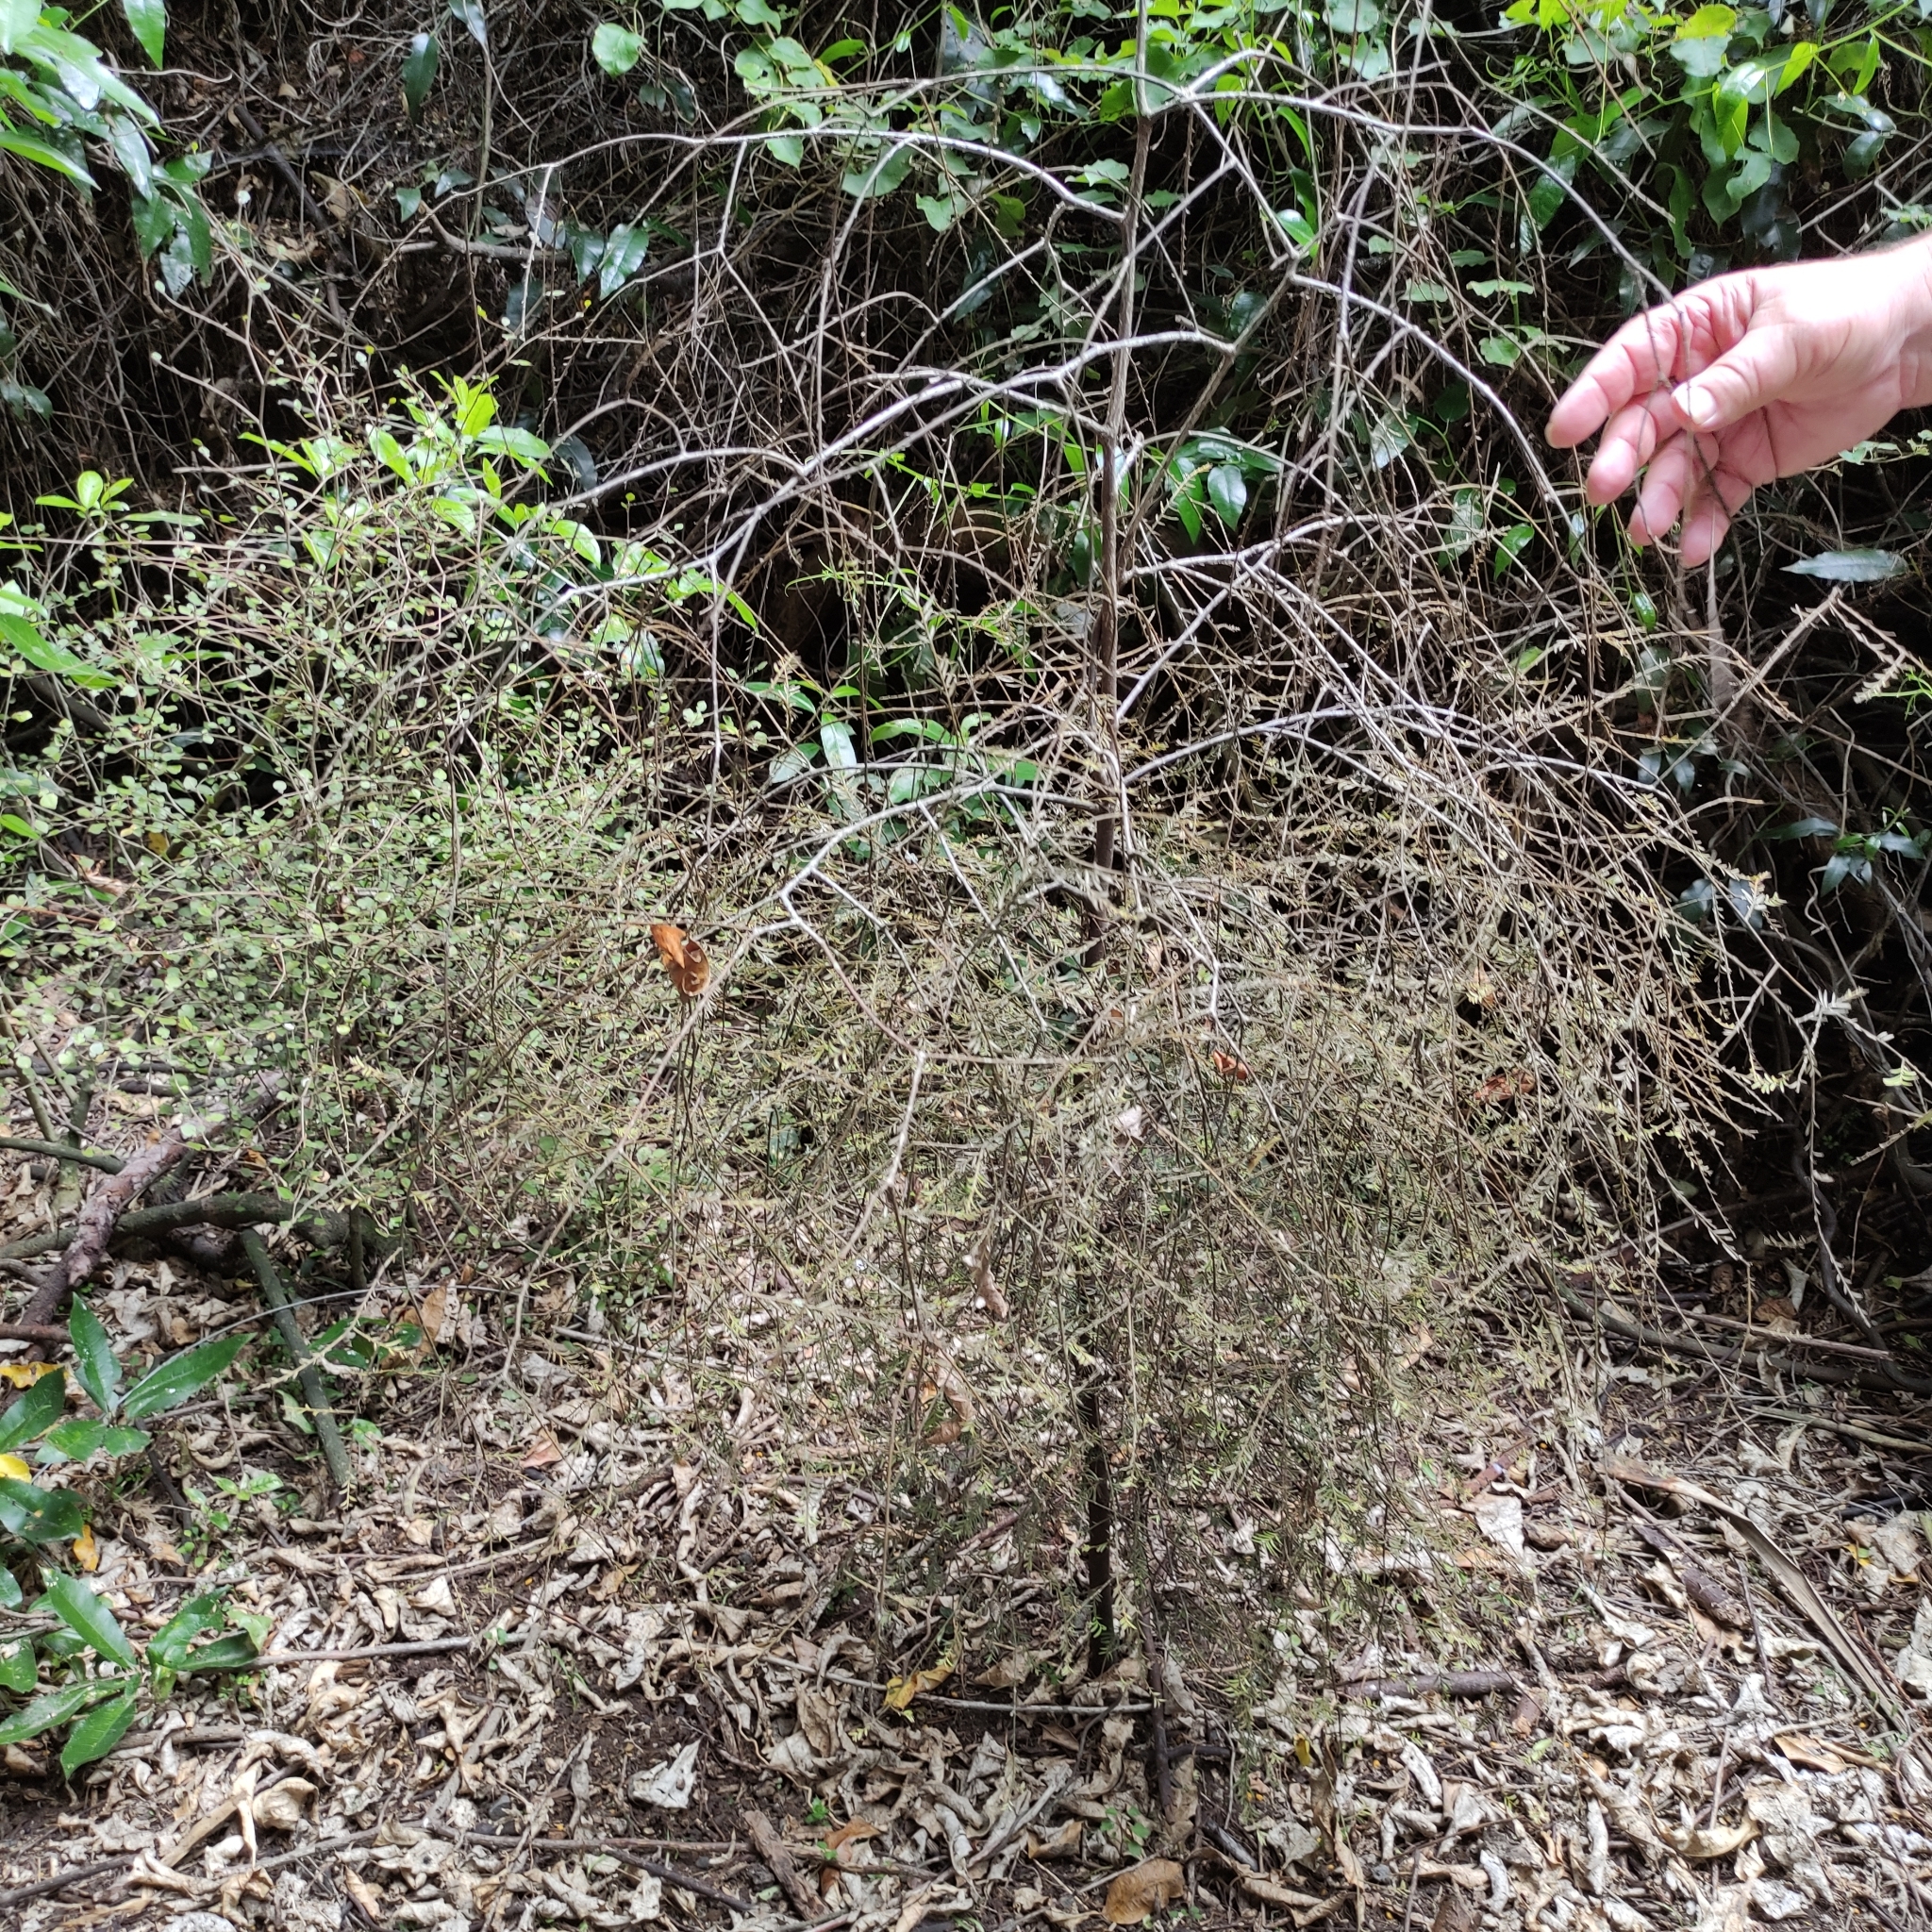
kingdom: Plantae
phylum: Tracheophyta
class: Pinopsida
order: Pinales
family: Podocarpaceae
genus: Prumnopitys
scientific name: Prumnopitys taxifolia
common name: Matai
